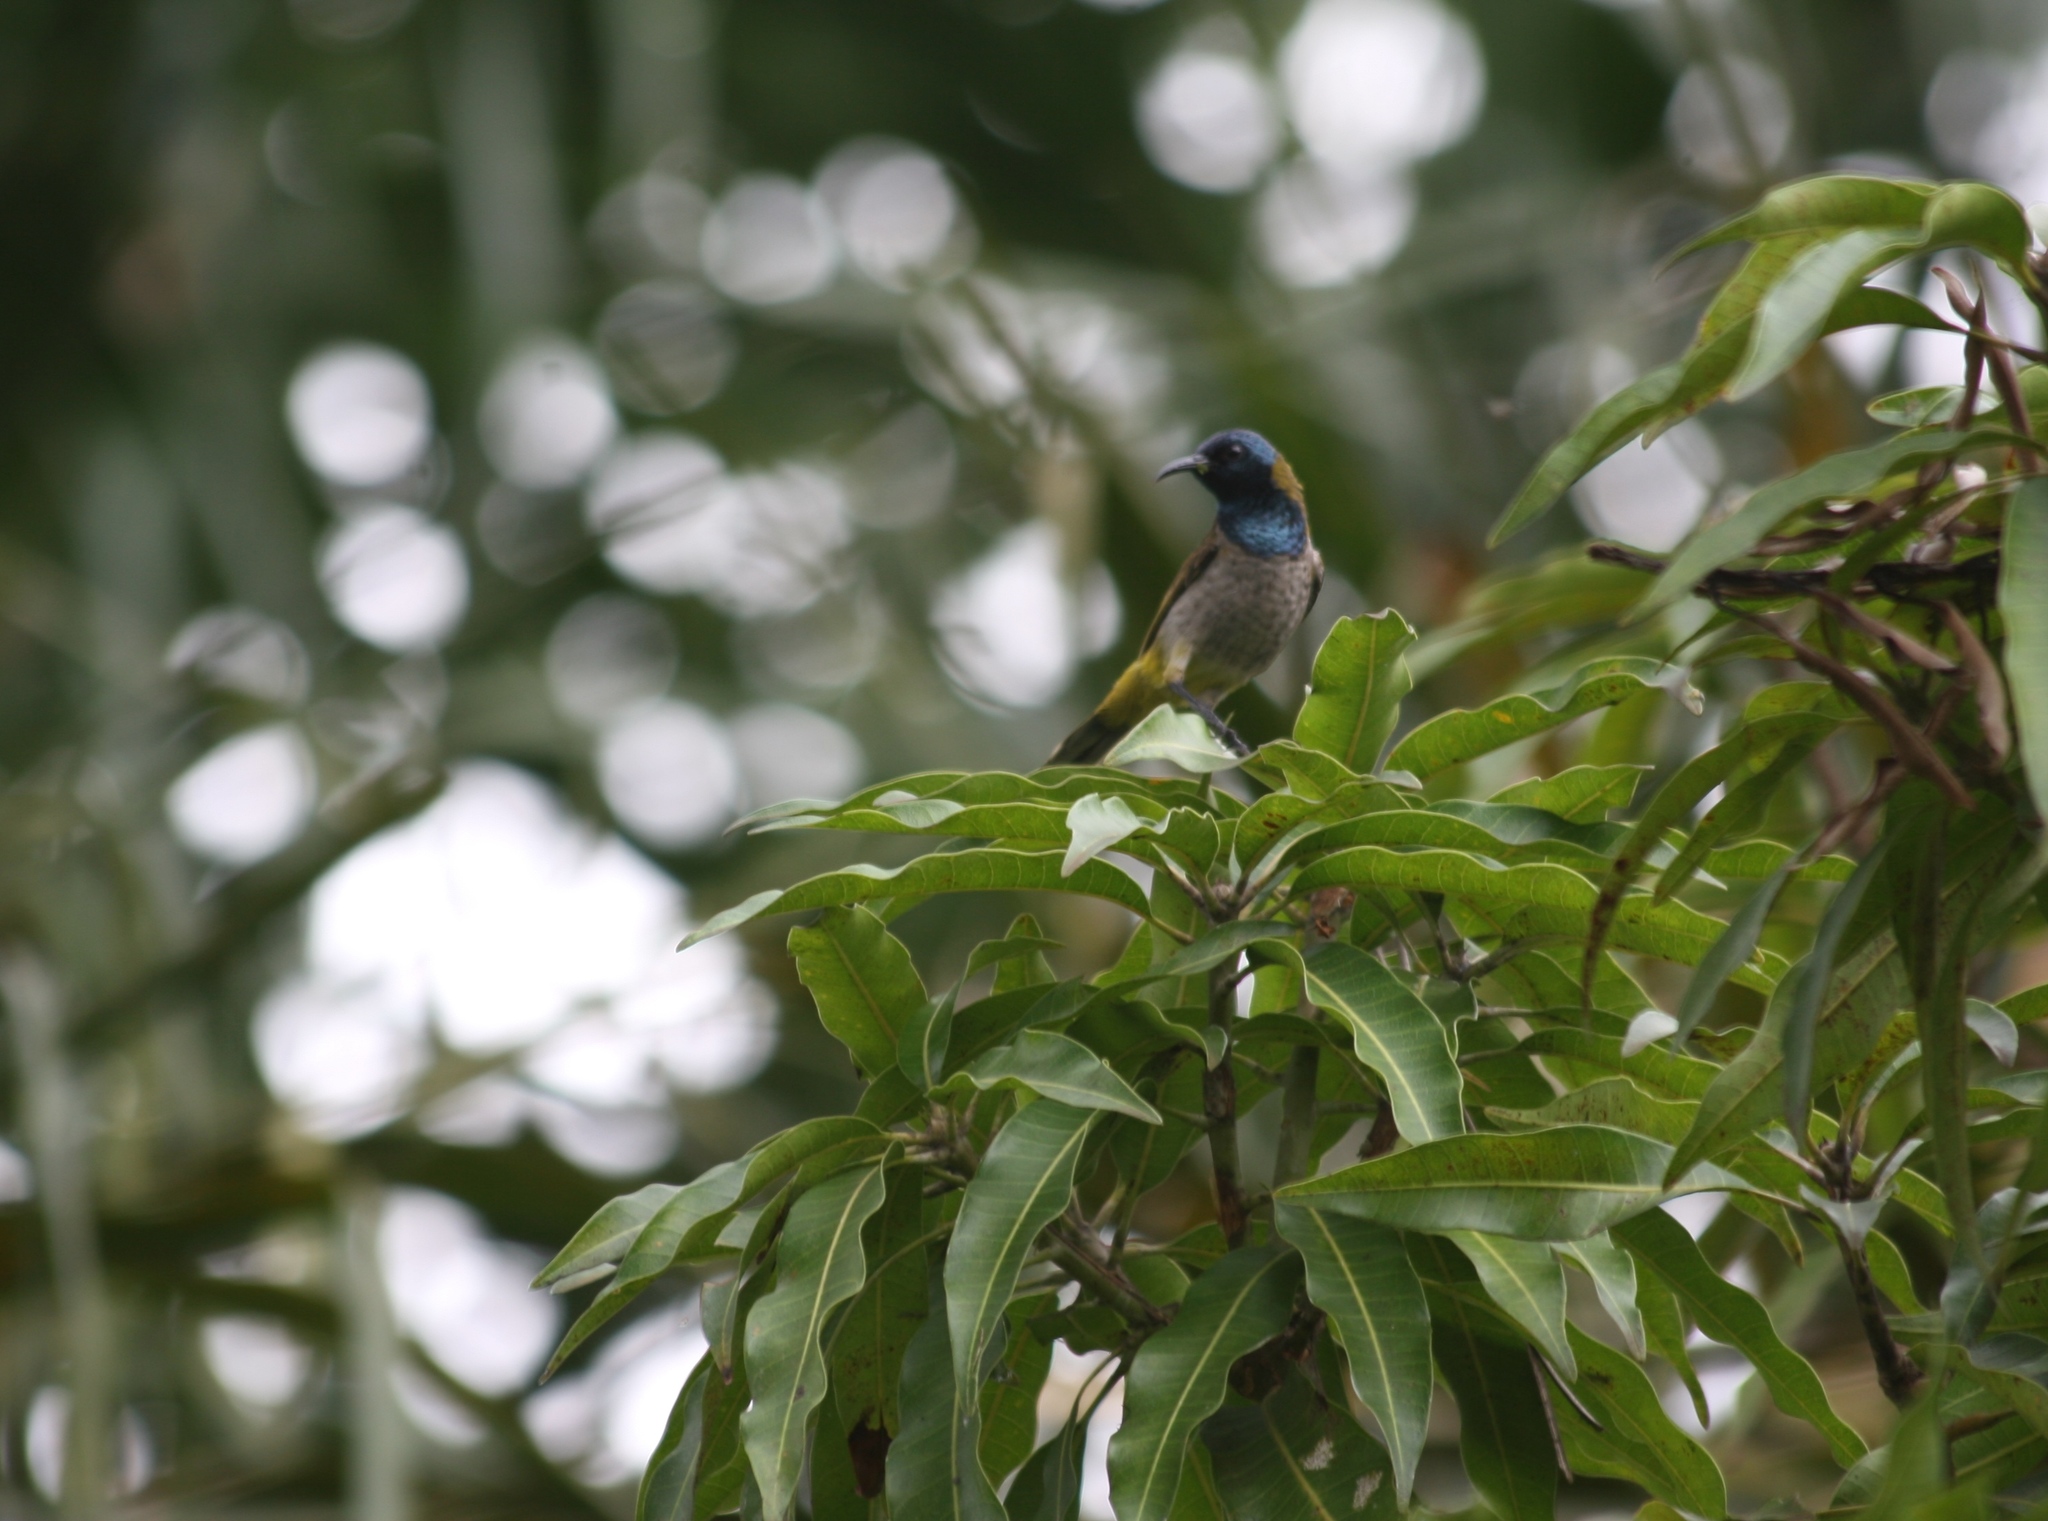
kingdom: Animalia
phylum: Chordata
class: Aves
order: Passeriformes
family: Nectariniidae
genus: Anabathmis
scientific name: Anabathmis reichenbachii
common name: Reichenbach's sunbird
